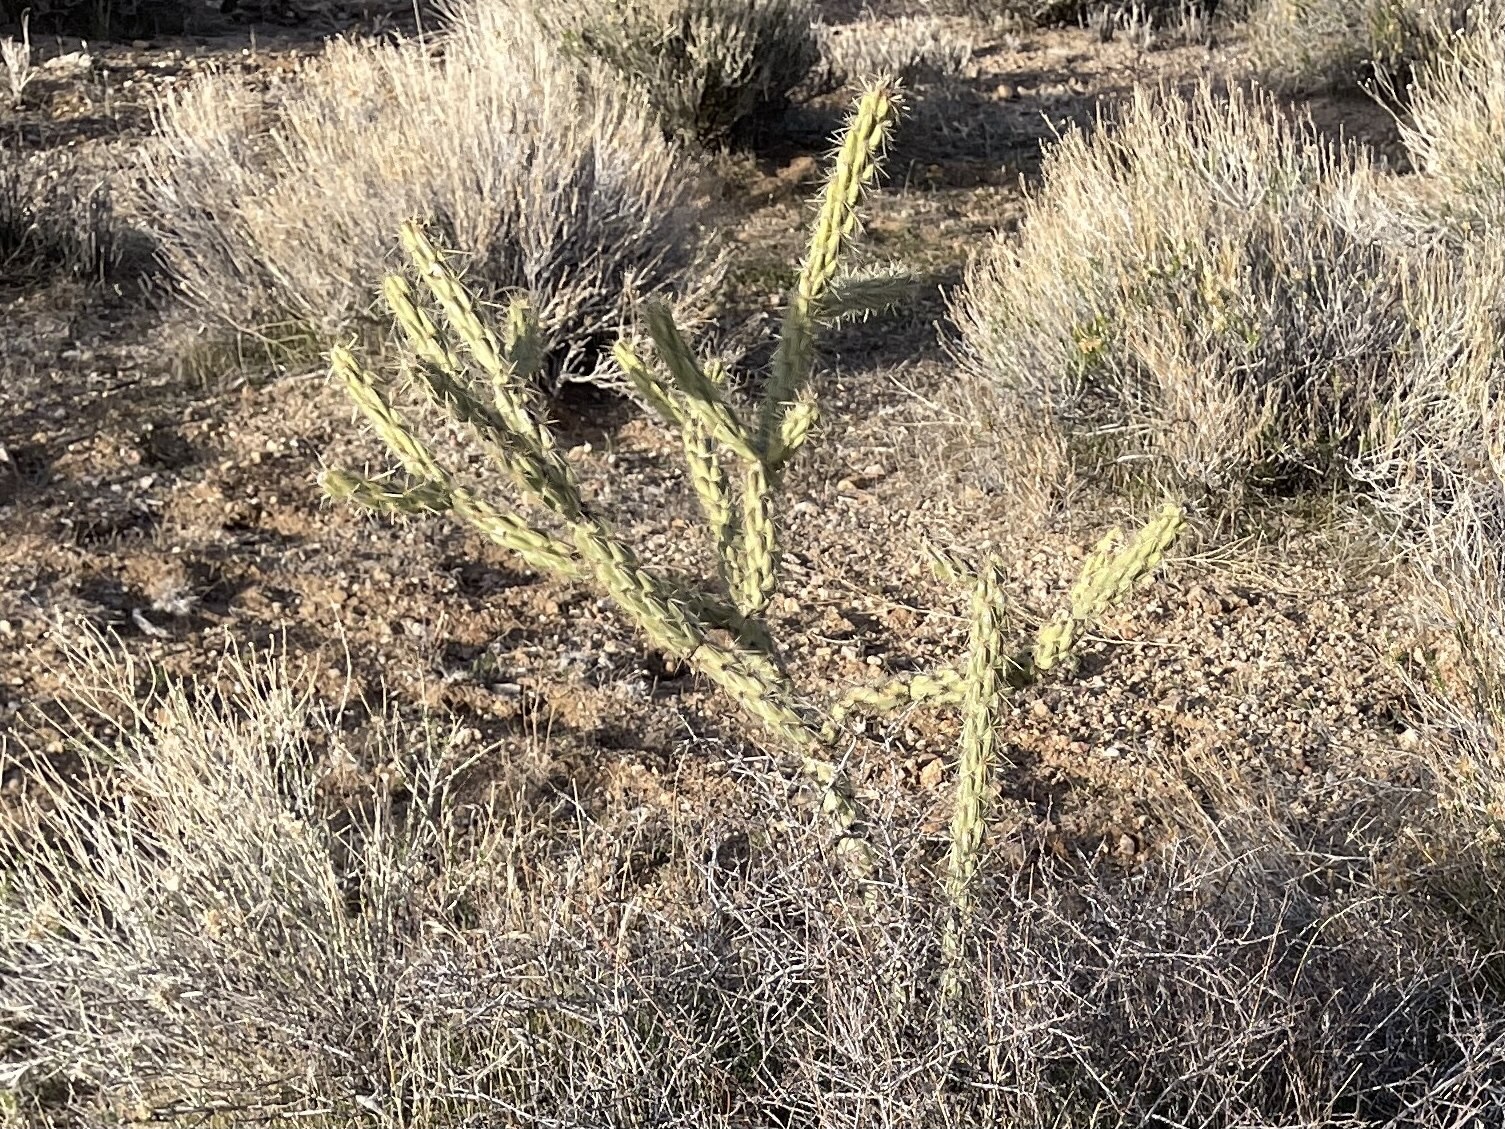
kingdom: Plantae
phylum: Tracheophyta
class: Magnoliopsida
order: Caryophyllales
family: Cactaceae
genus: Cylindropuntia
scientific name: Cylindropuntia acanthocarpa
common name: Buckhorn cholla
